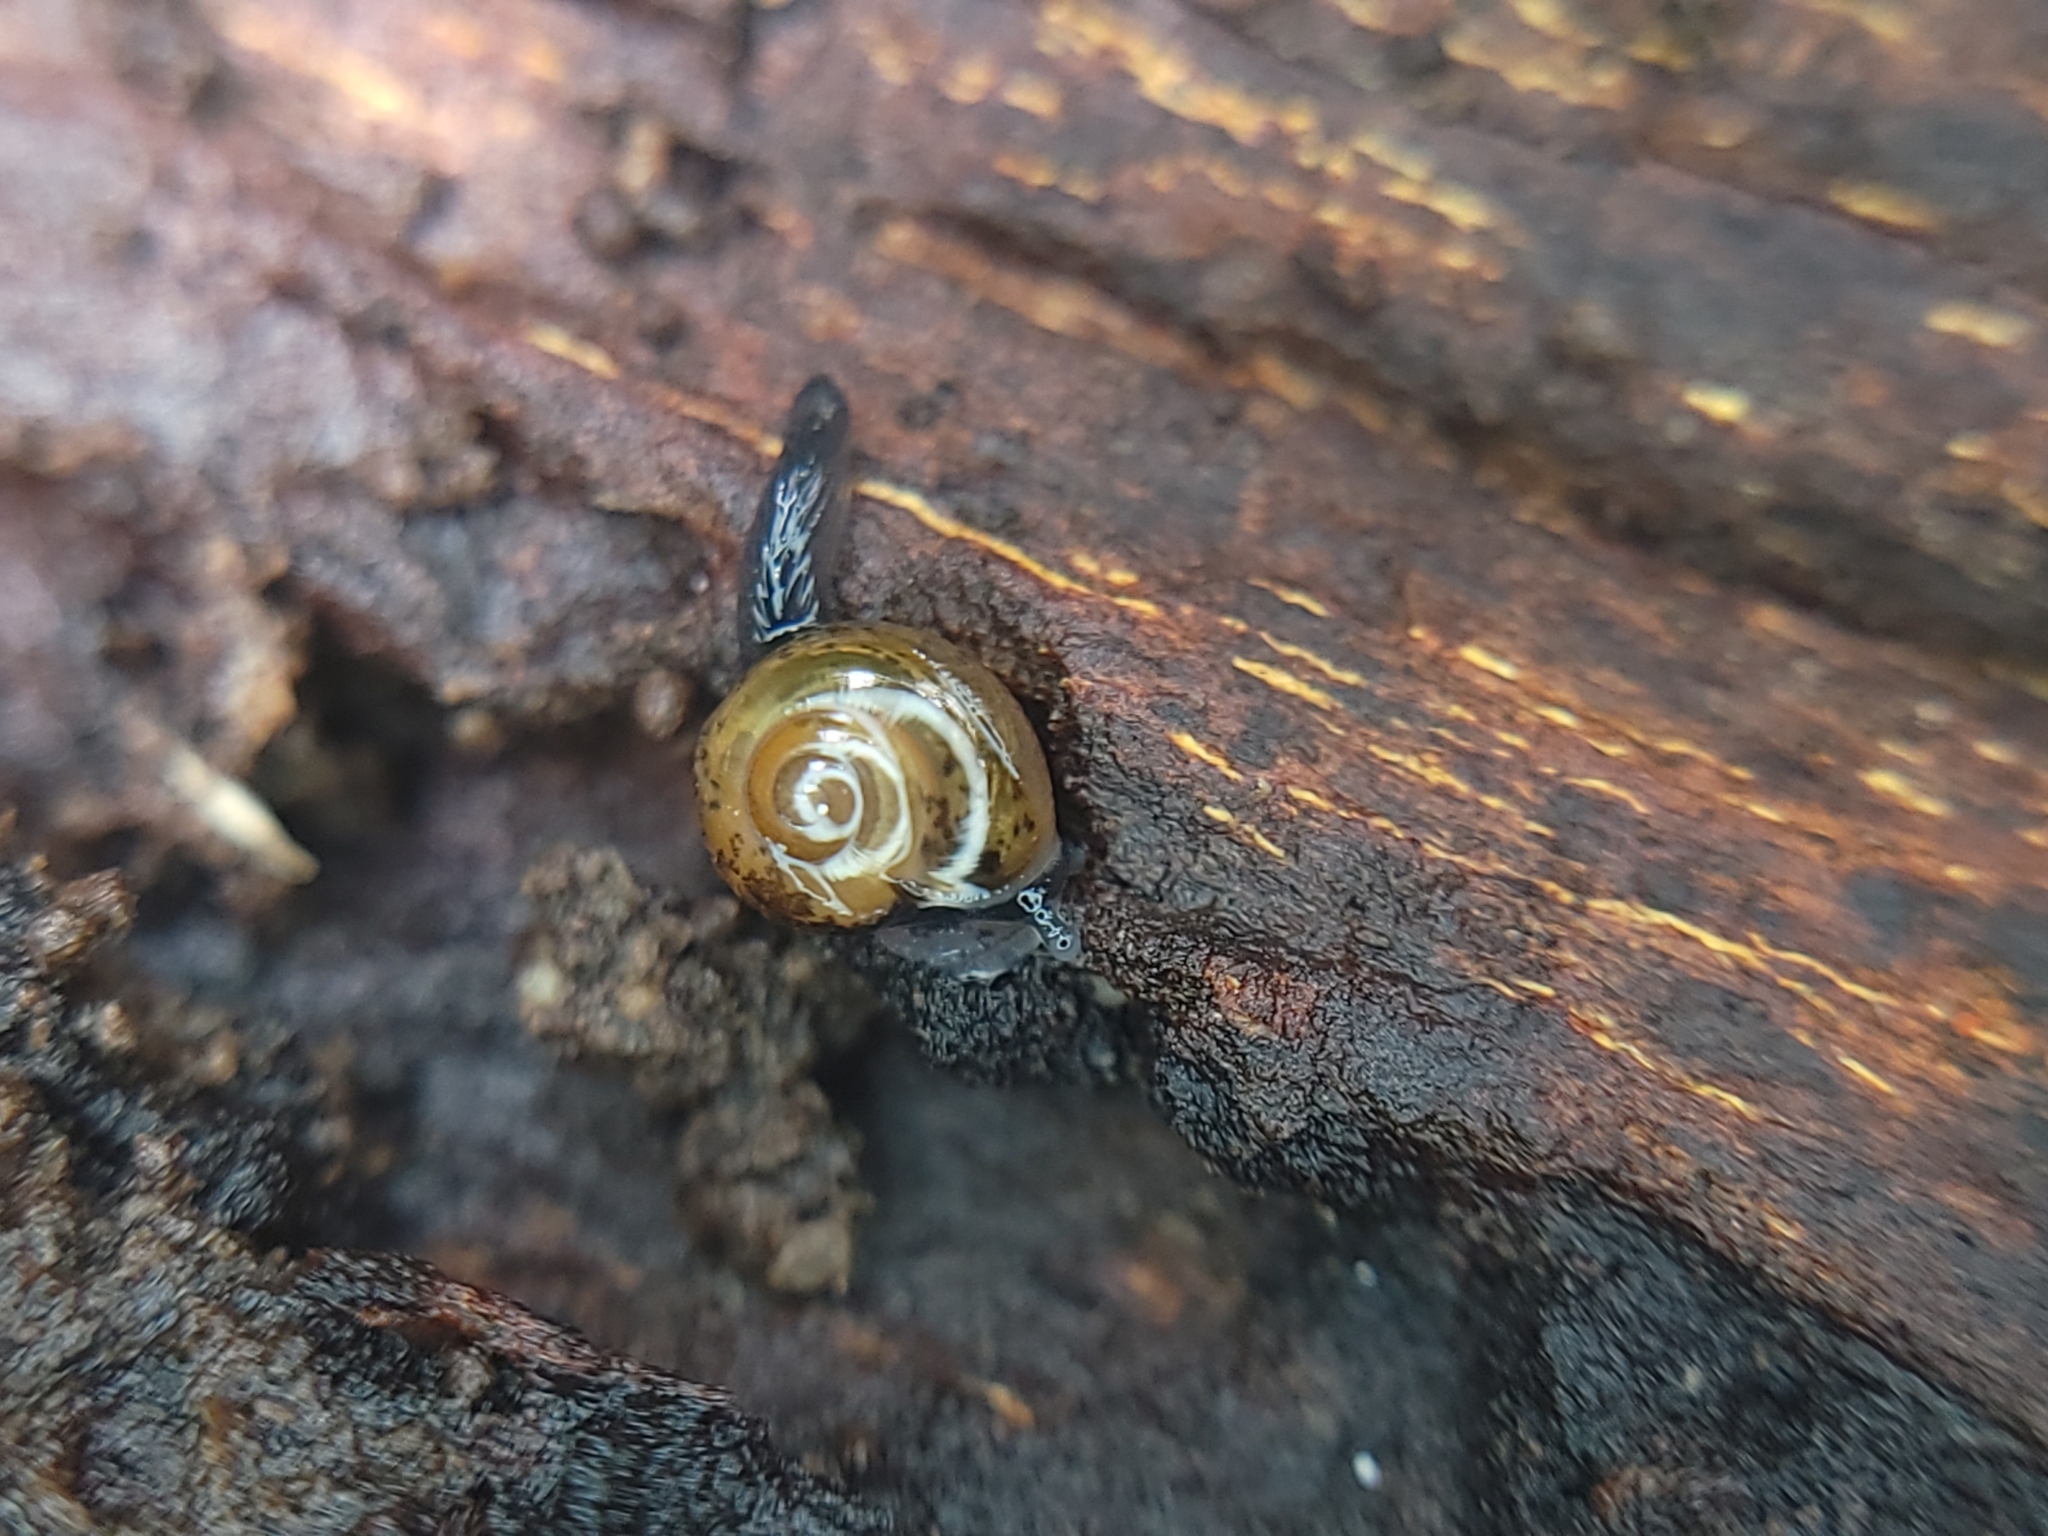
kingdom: Animalia
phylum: Mollusca
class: Gastropoda
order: Stylommatophora
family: Helicarionidae
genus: Ovachlamys
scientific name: Ovachlamys fulgens
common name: Jumping snail
